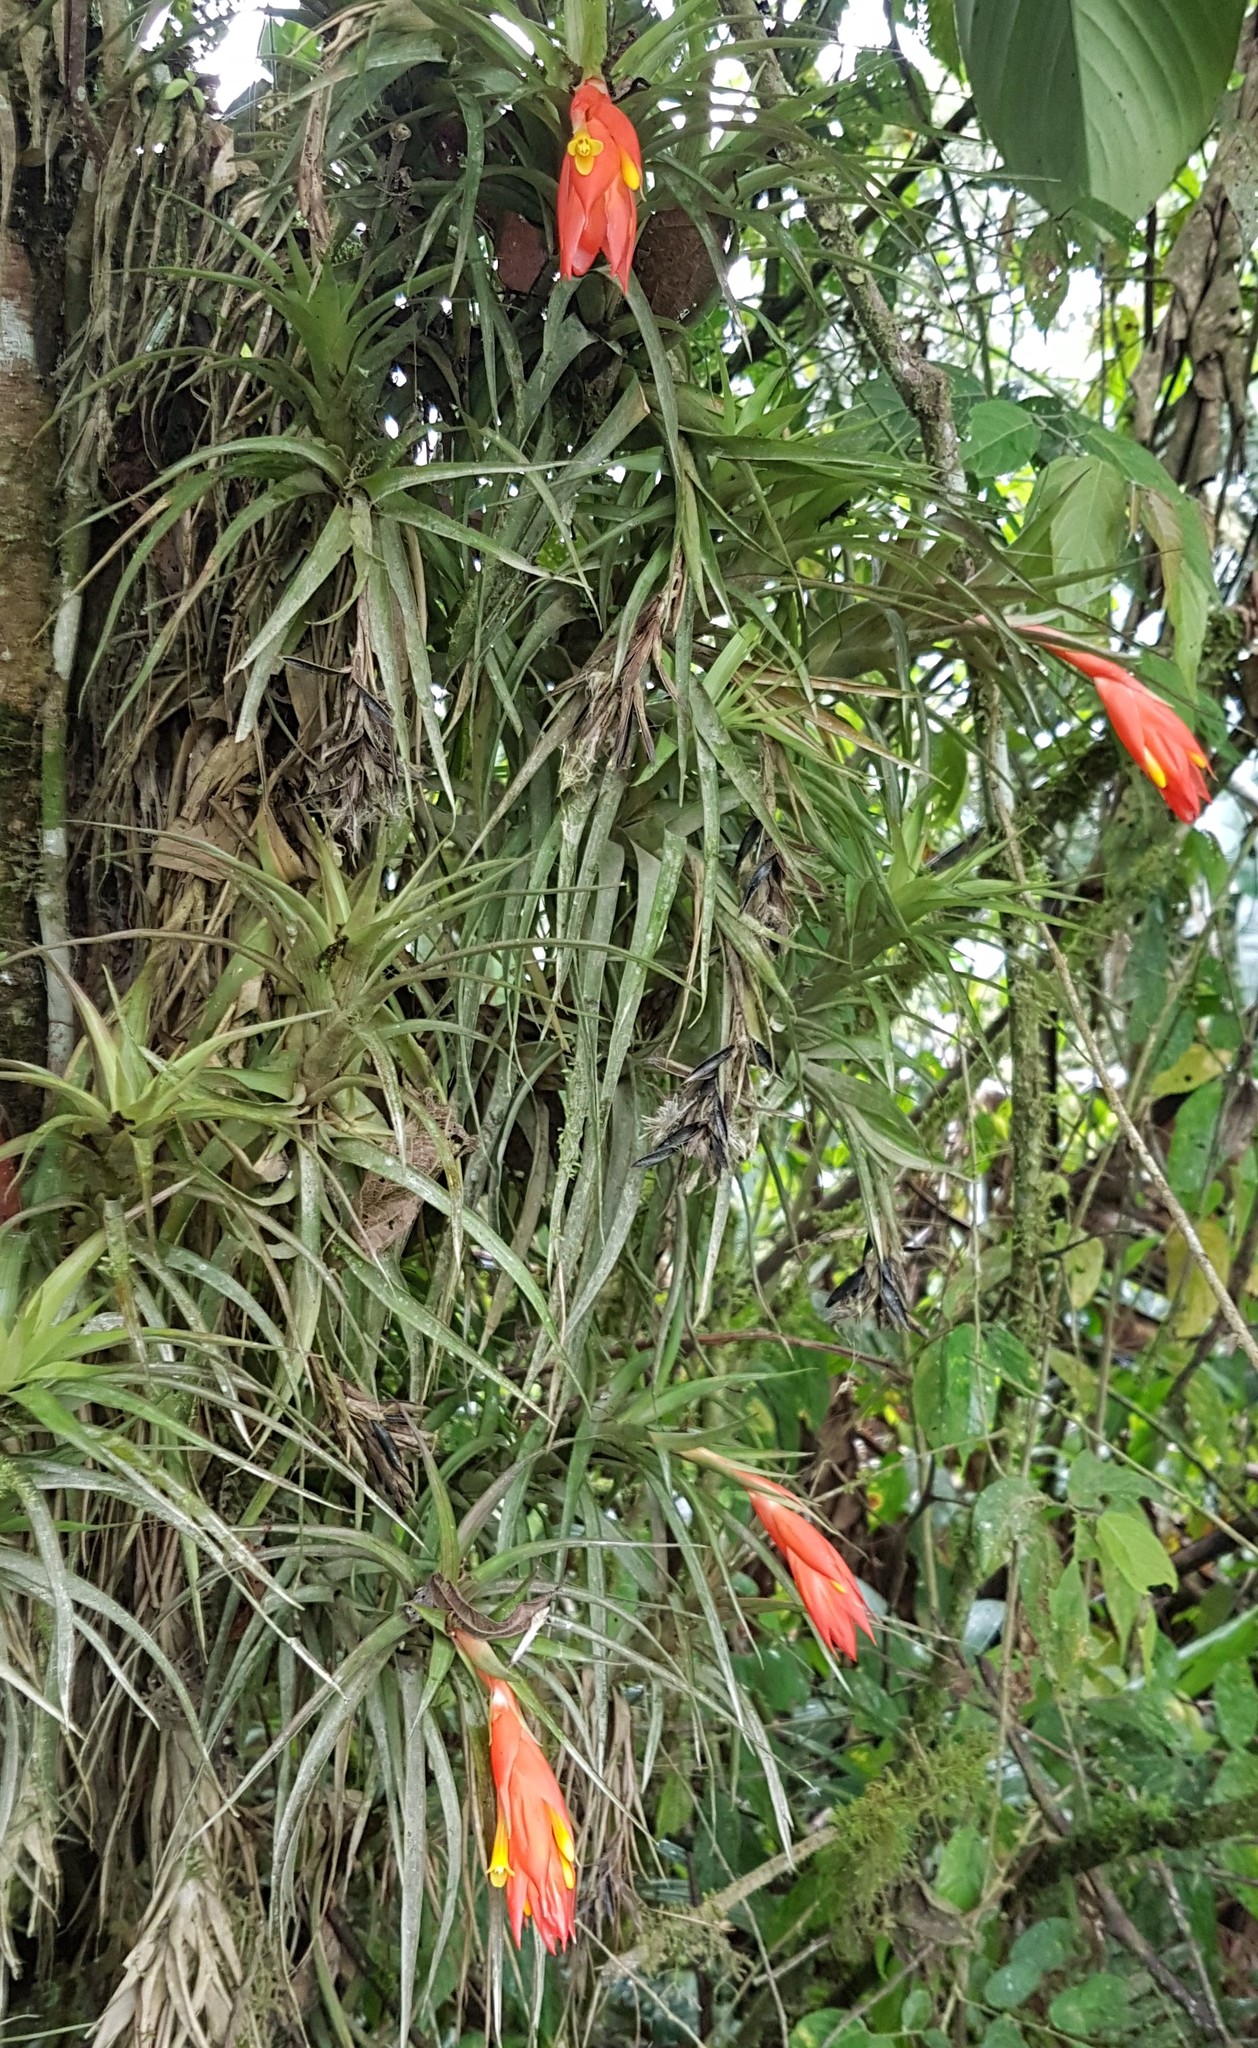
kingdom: Plantae
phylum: Tracheophyta
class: Liliopsida
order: Poales
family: Bromeliaceae
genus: Guzmania
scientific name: Guzmania angustifolia
